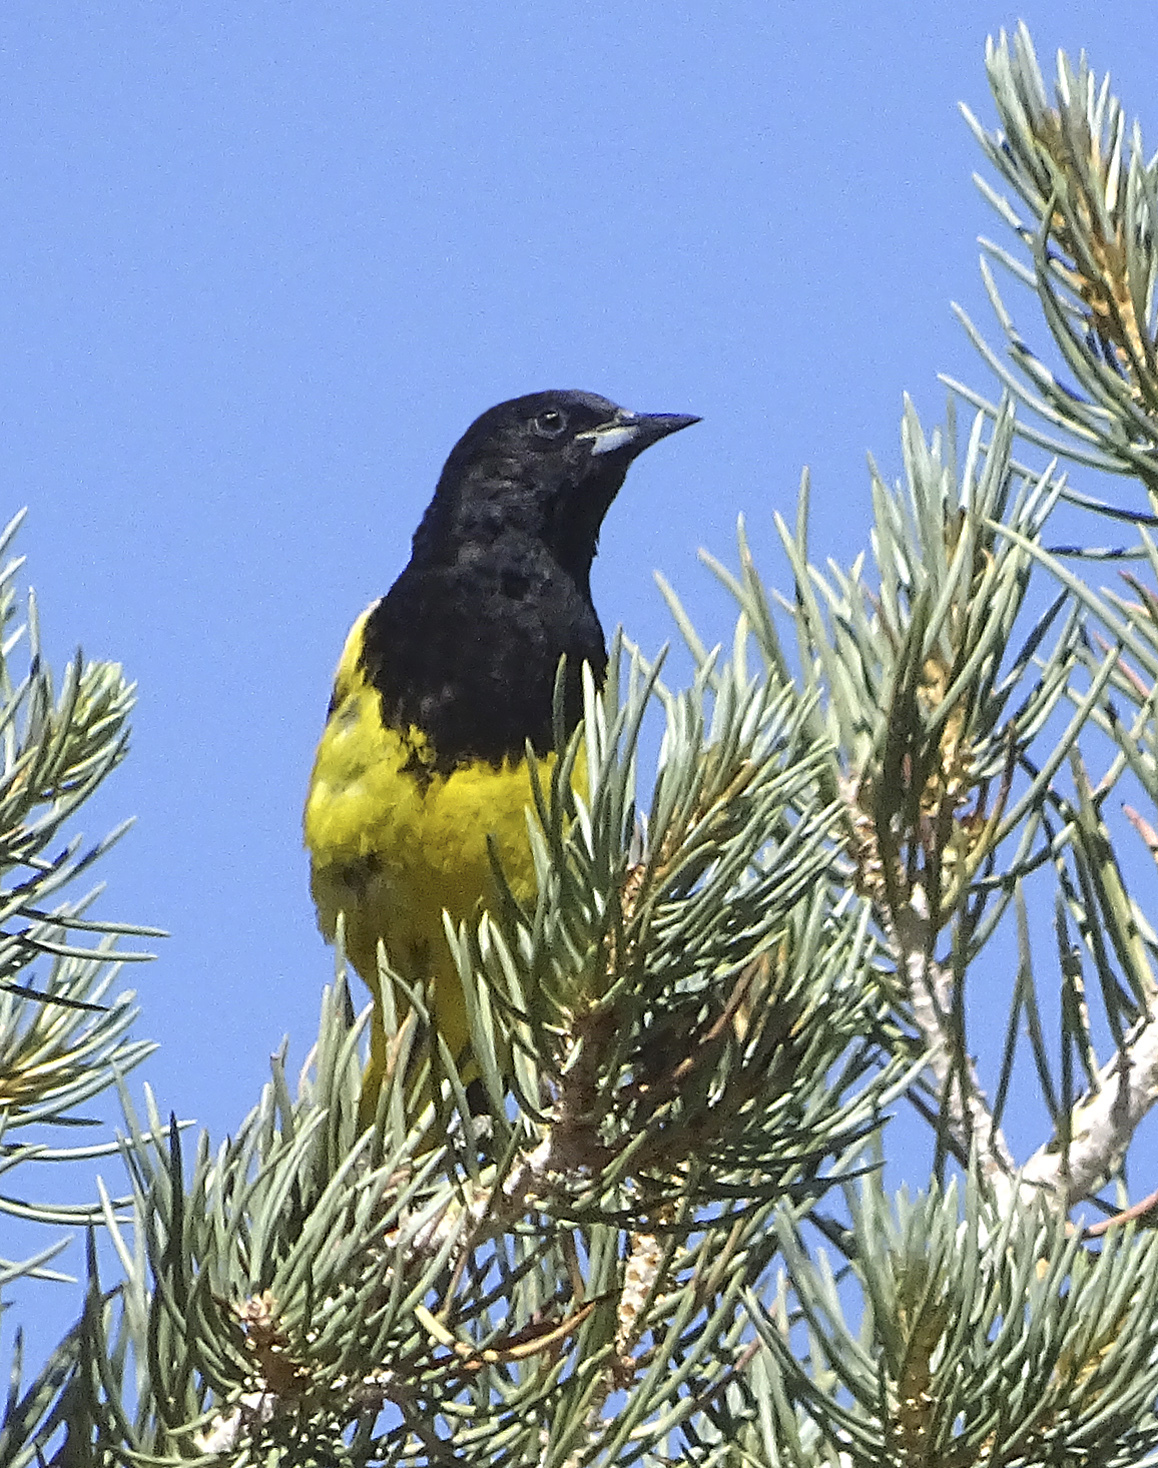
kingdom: Animalia
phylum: Chordata
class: Aves
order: Passeriformes
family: Icteridae
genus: Icterus
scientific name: Icterus parisorum
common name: Scott's oriole
